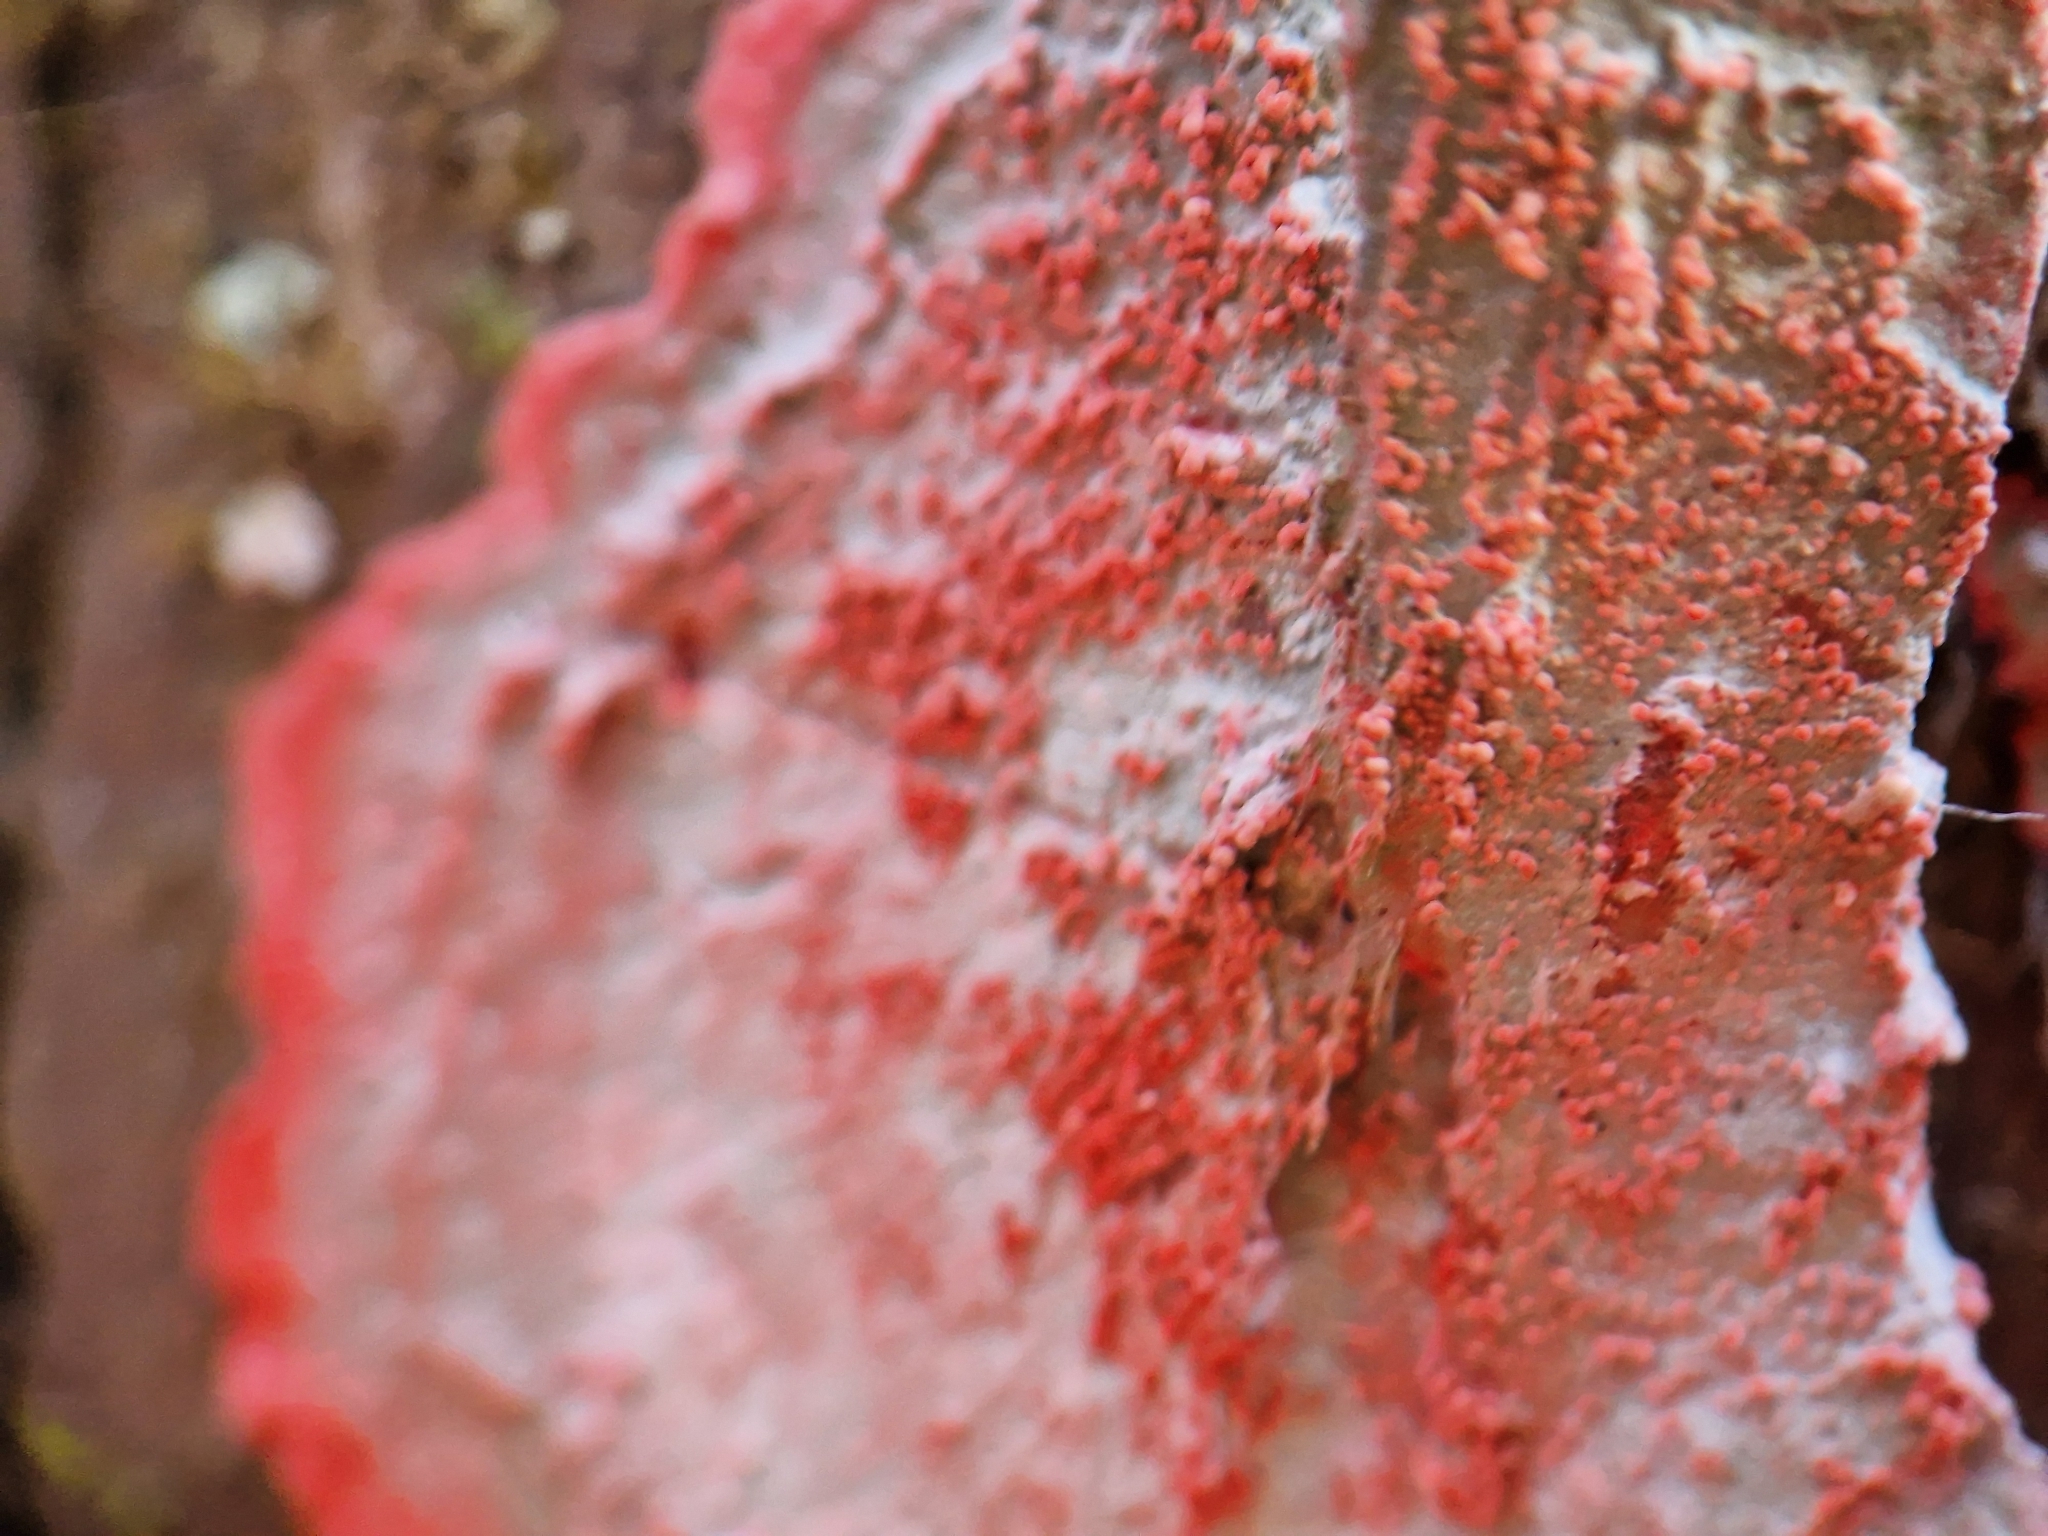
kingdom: Fungi
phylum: Ascomycota
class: Arthoniomycetes
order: Arthoniales
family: Arthoniaceae
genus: Herpothallon
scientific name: Herpothallon rubrocinctum
